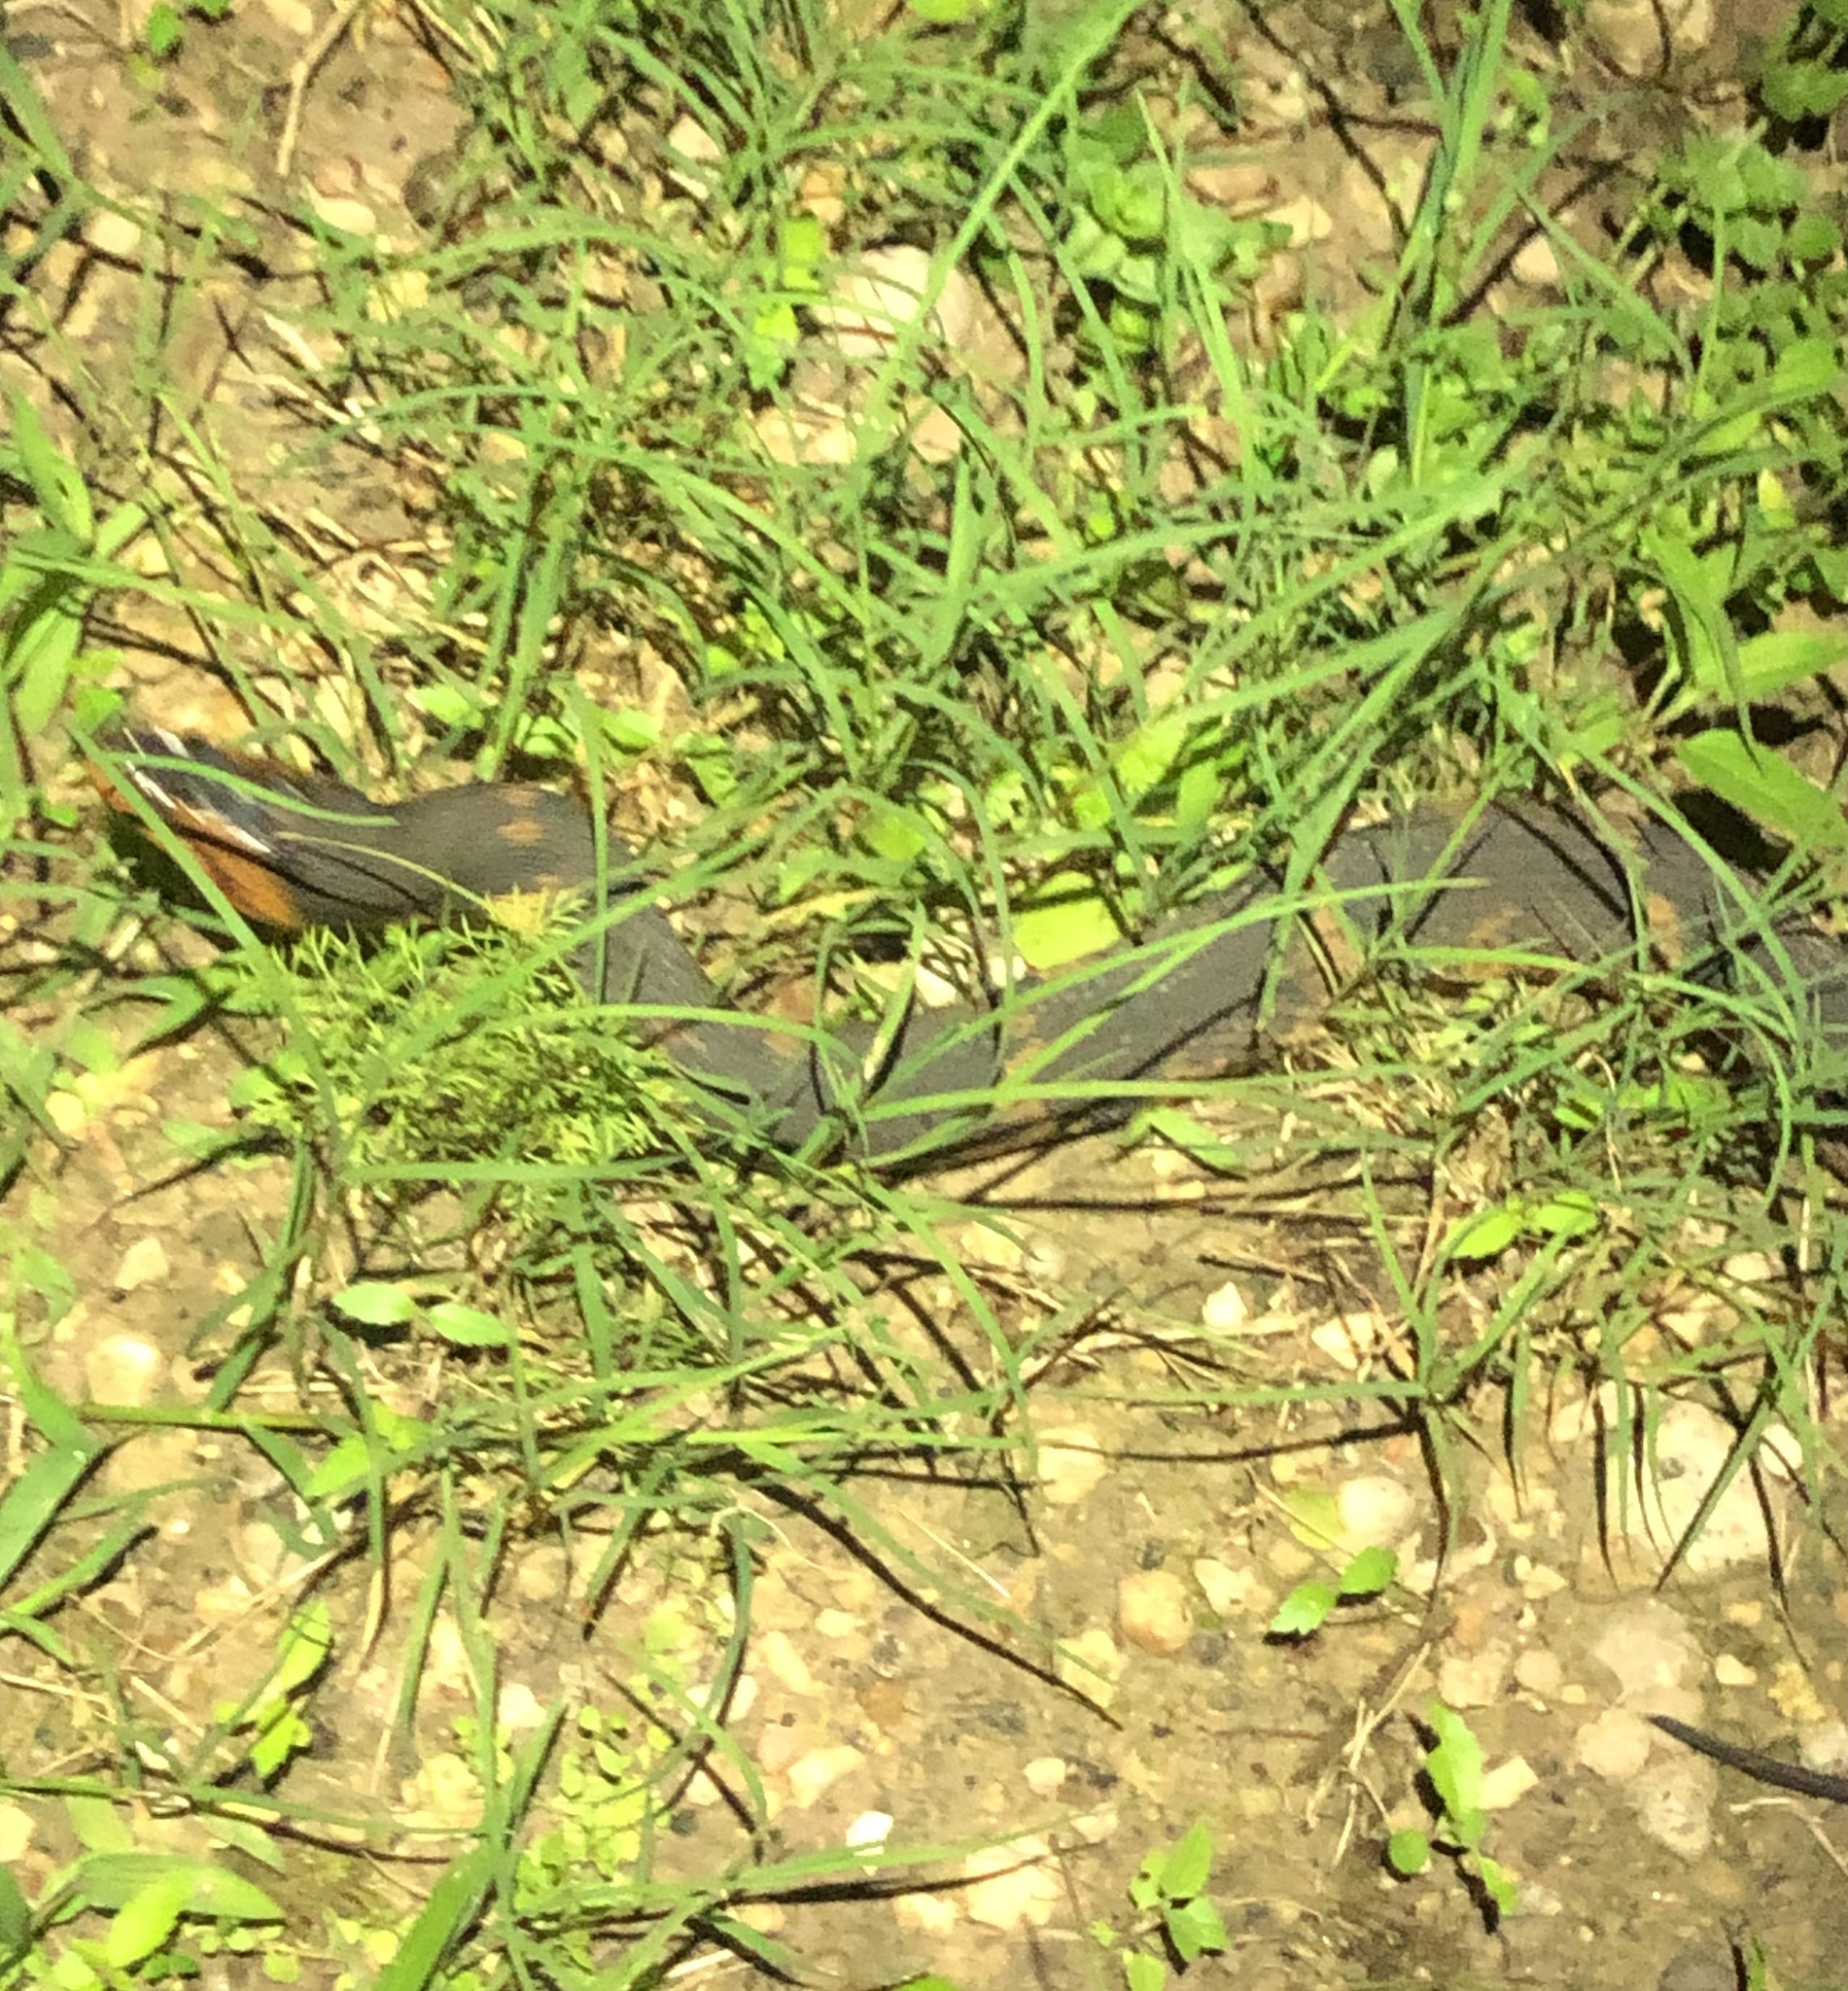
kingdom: Animalia
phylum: Chordata
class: Squamata
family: Colubridae
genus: Nerodia
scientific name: Nerodia fasciata
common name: Southern water snake
